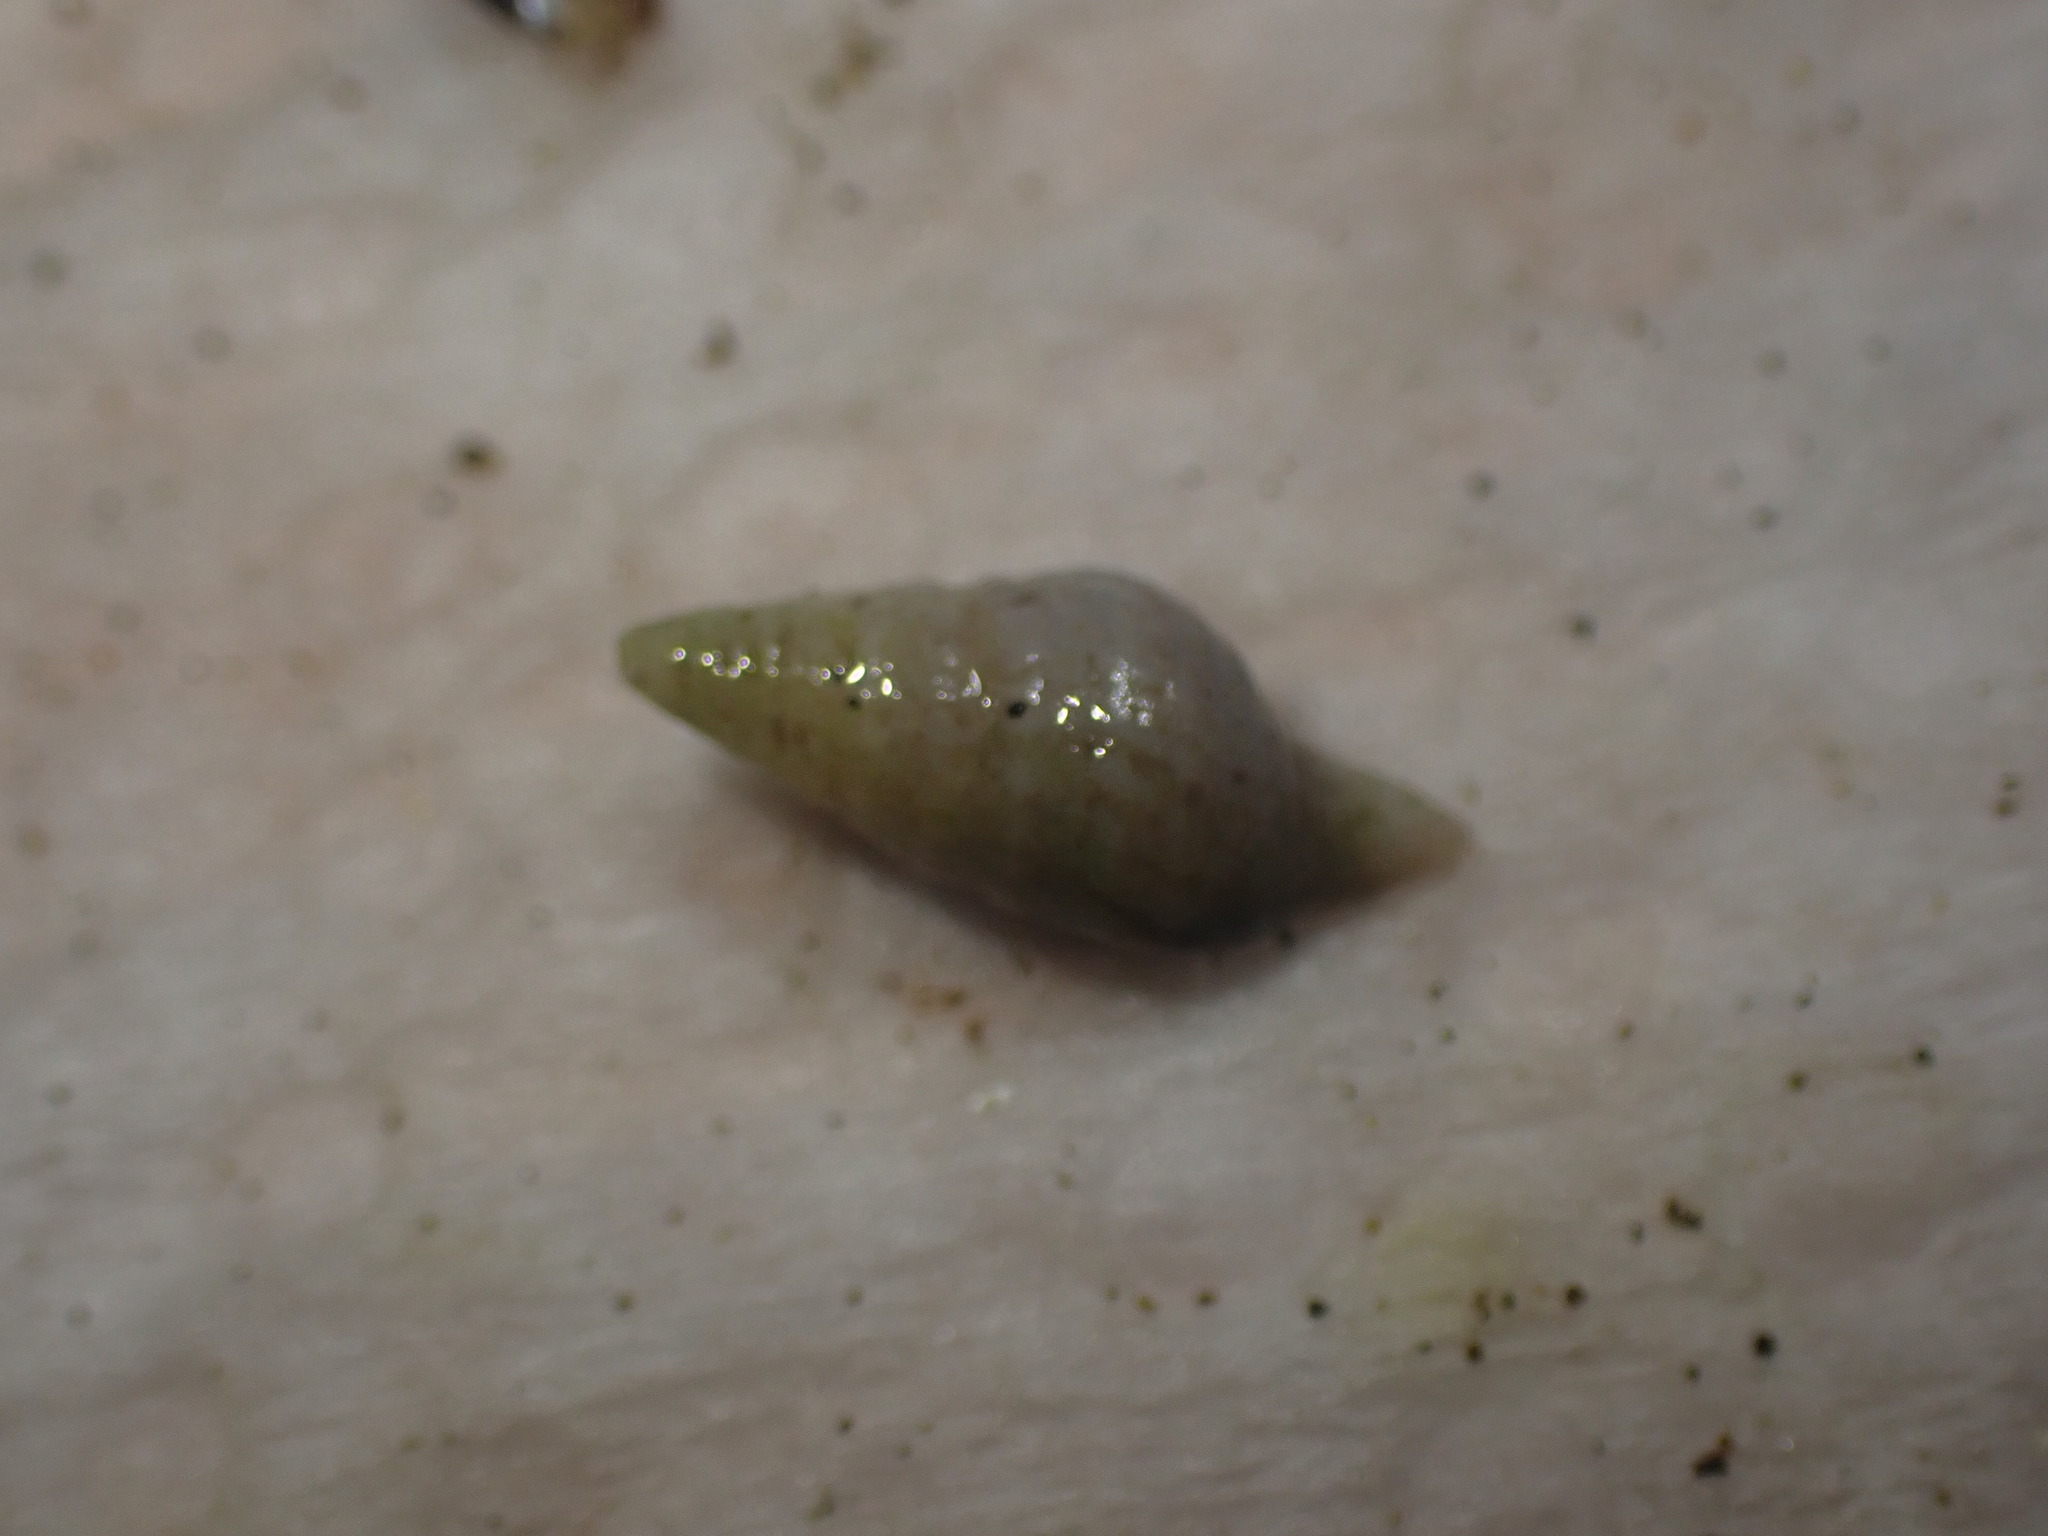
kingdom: Animalia
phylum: Mollusca
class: Gastropoda
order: Neogastropoda
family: Borsoniidae
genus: Phenatoma
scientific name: Phenatoma roseum
